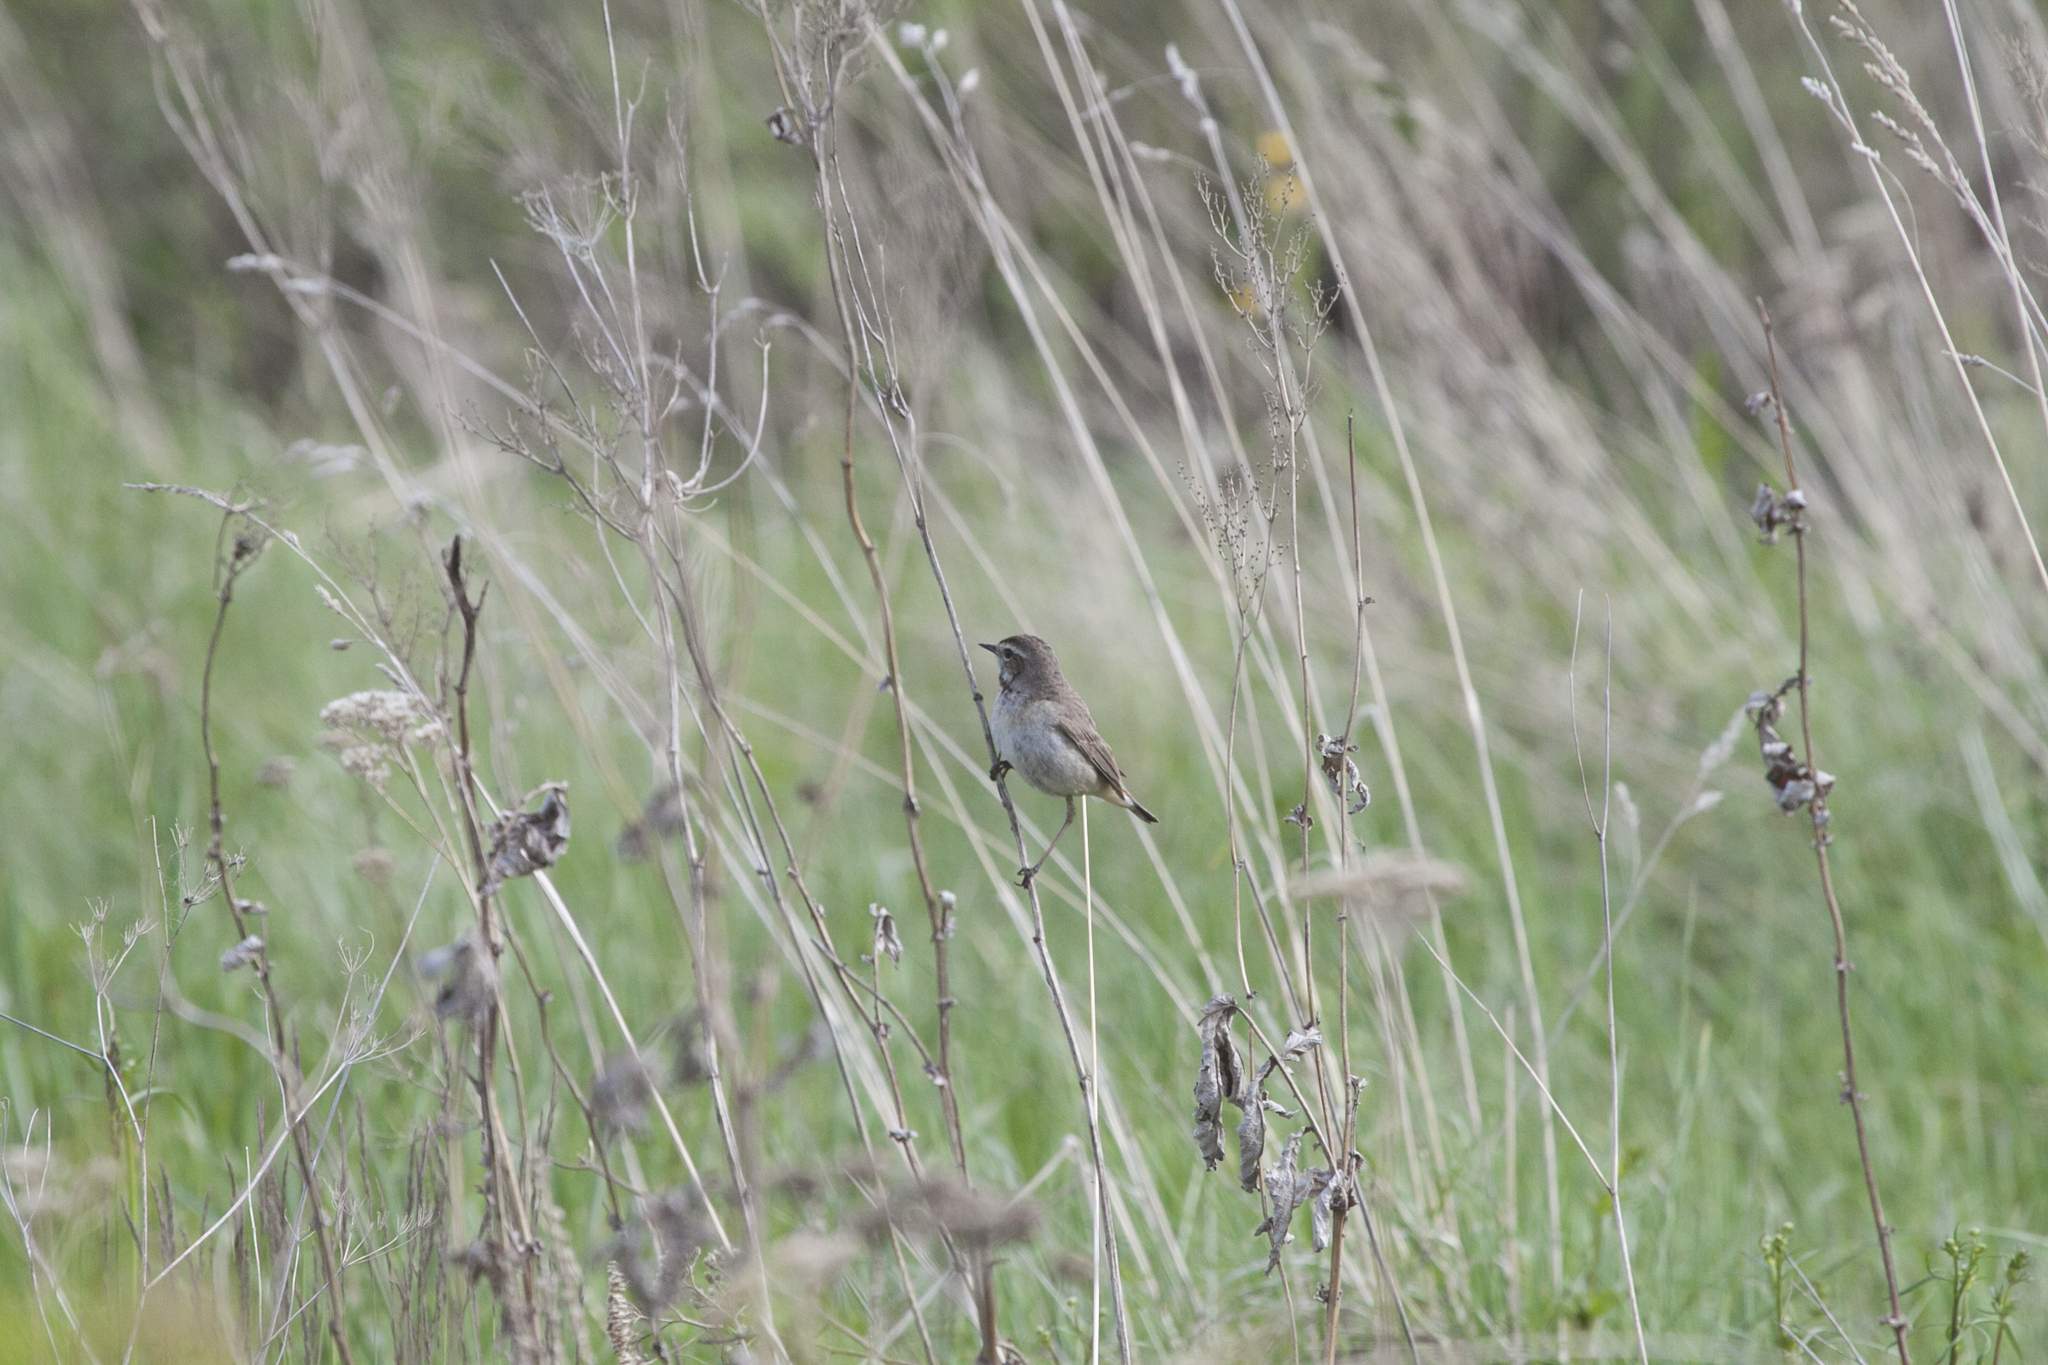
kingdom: Animalia
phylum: Chordata
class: Aves
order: Passeriformes
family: Muscicapidae
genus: Luscinia
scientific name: Luscinia svecica
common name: Bluethroat
